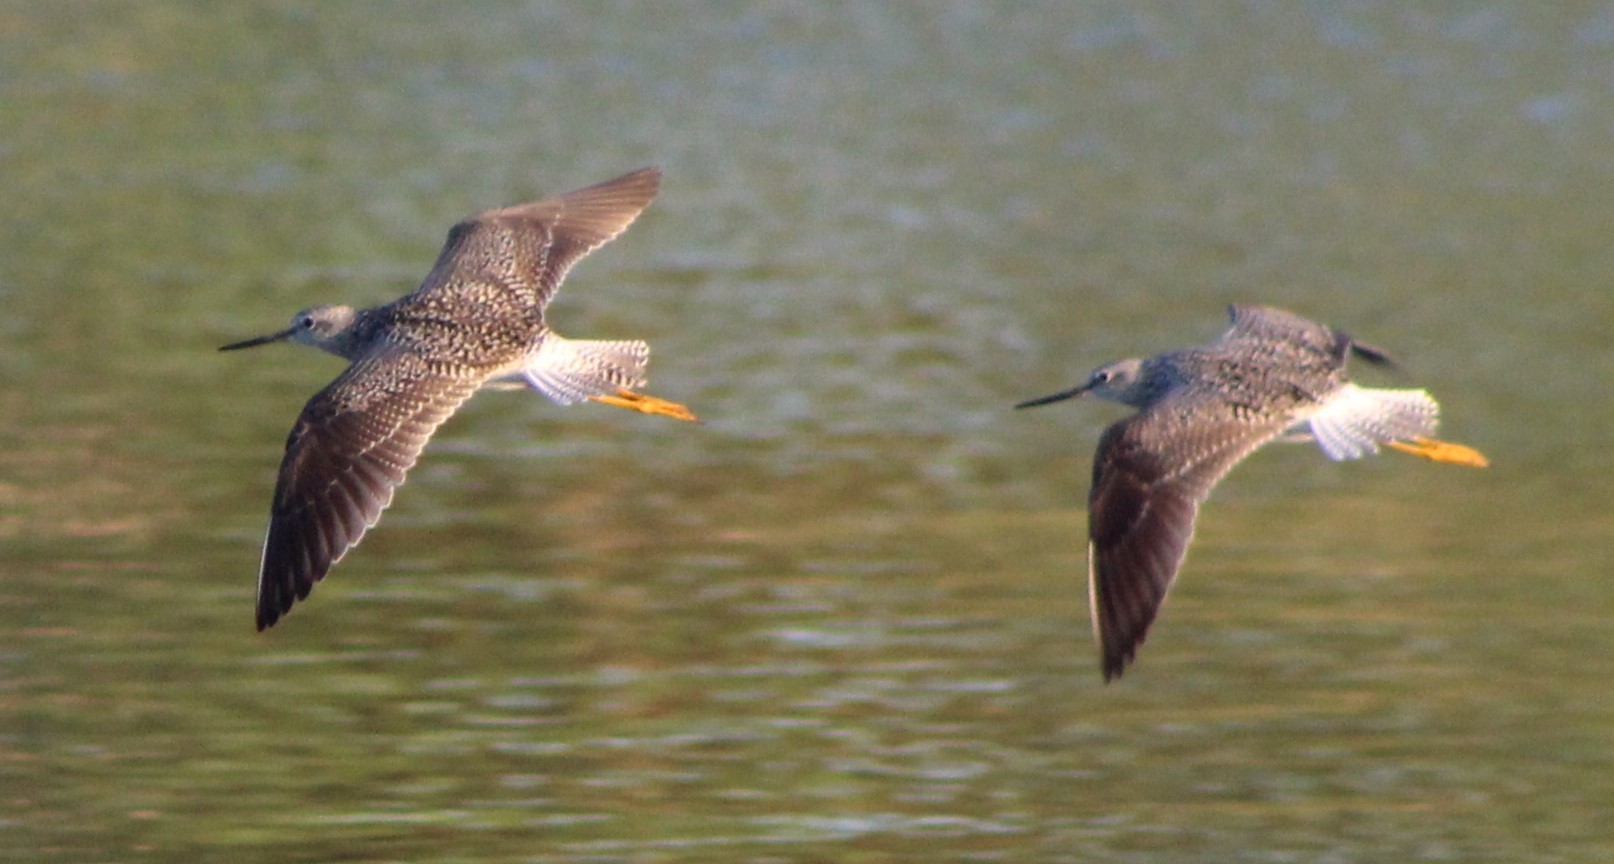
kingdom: Animalia
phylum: Chordata
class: Aves
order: Charadriiformes
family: Scolopacidae
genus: Tringa
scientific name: Tringa melanoleuca
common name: Greater yellowlegs
